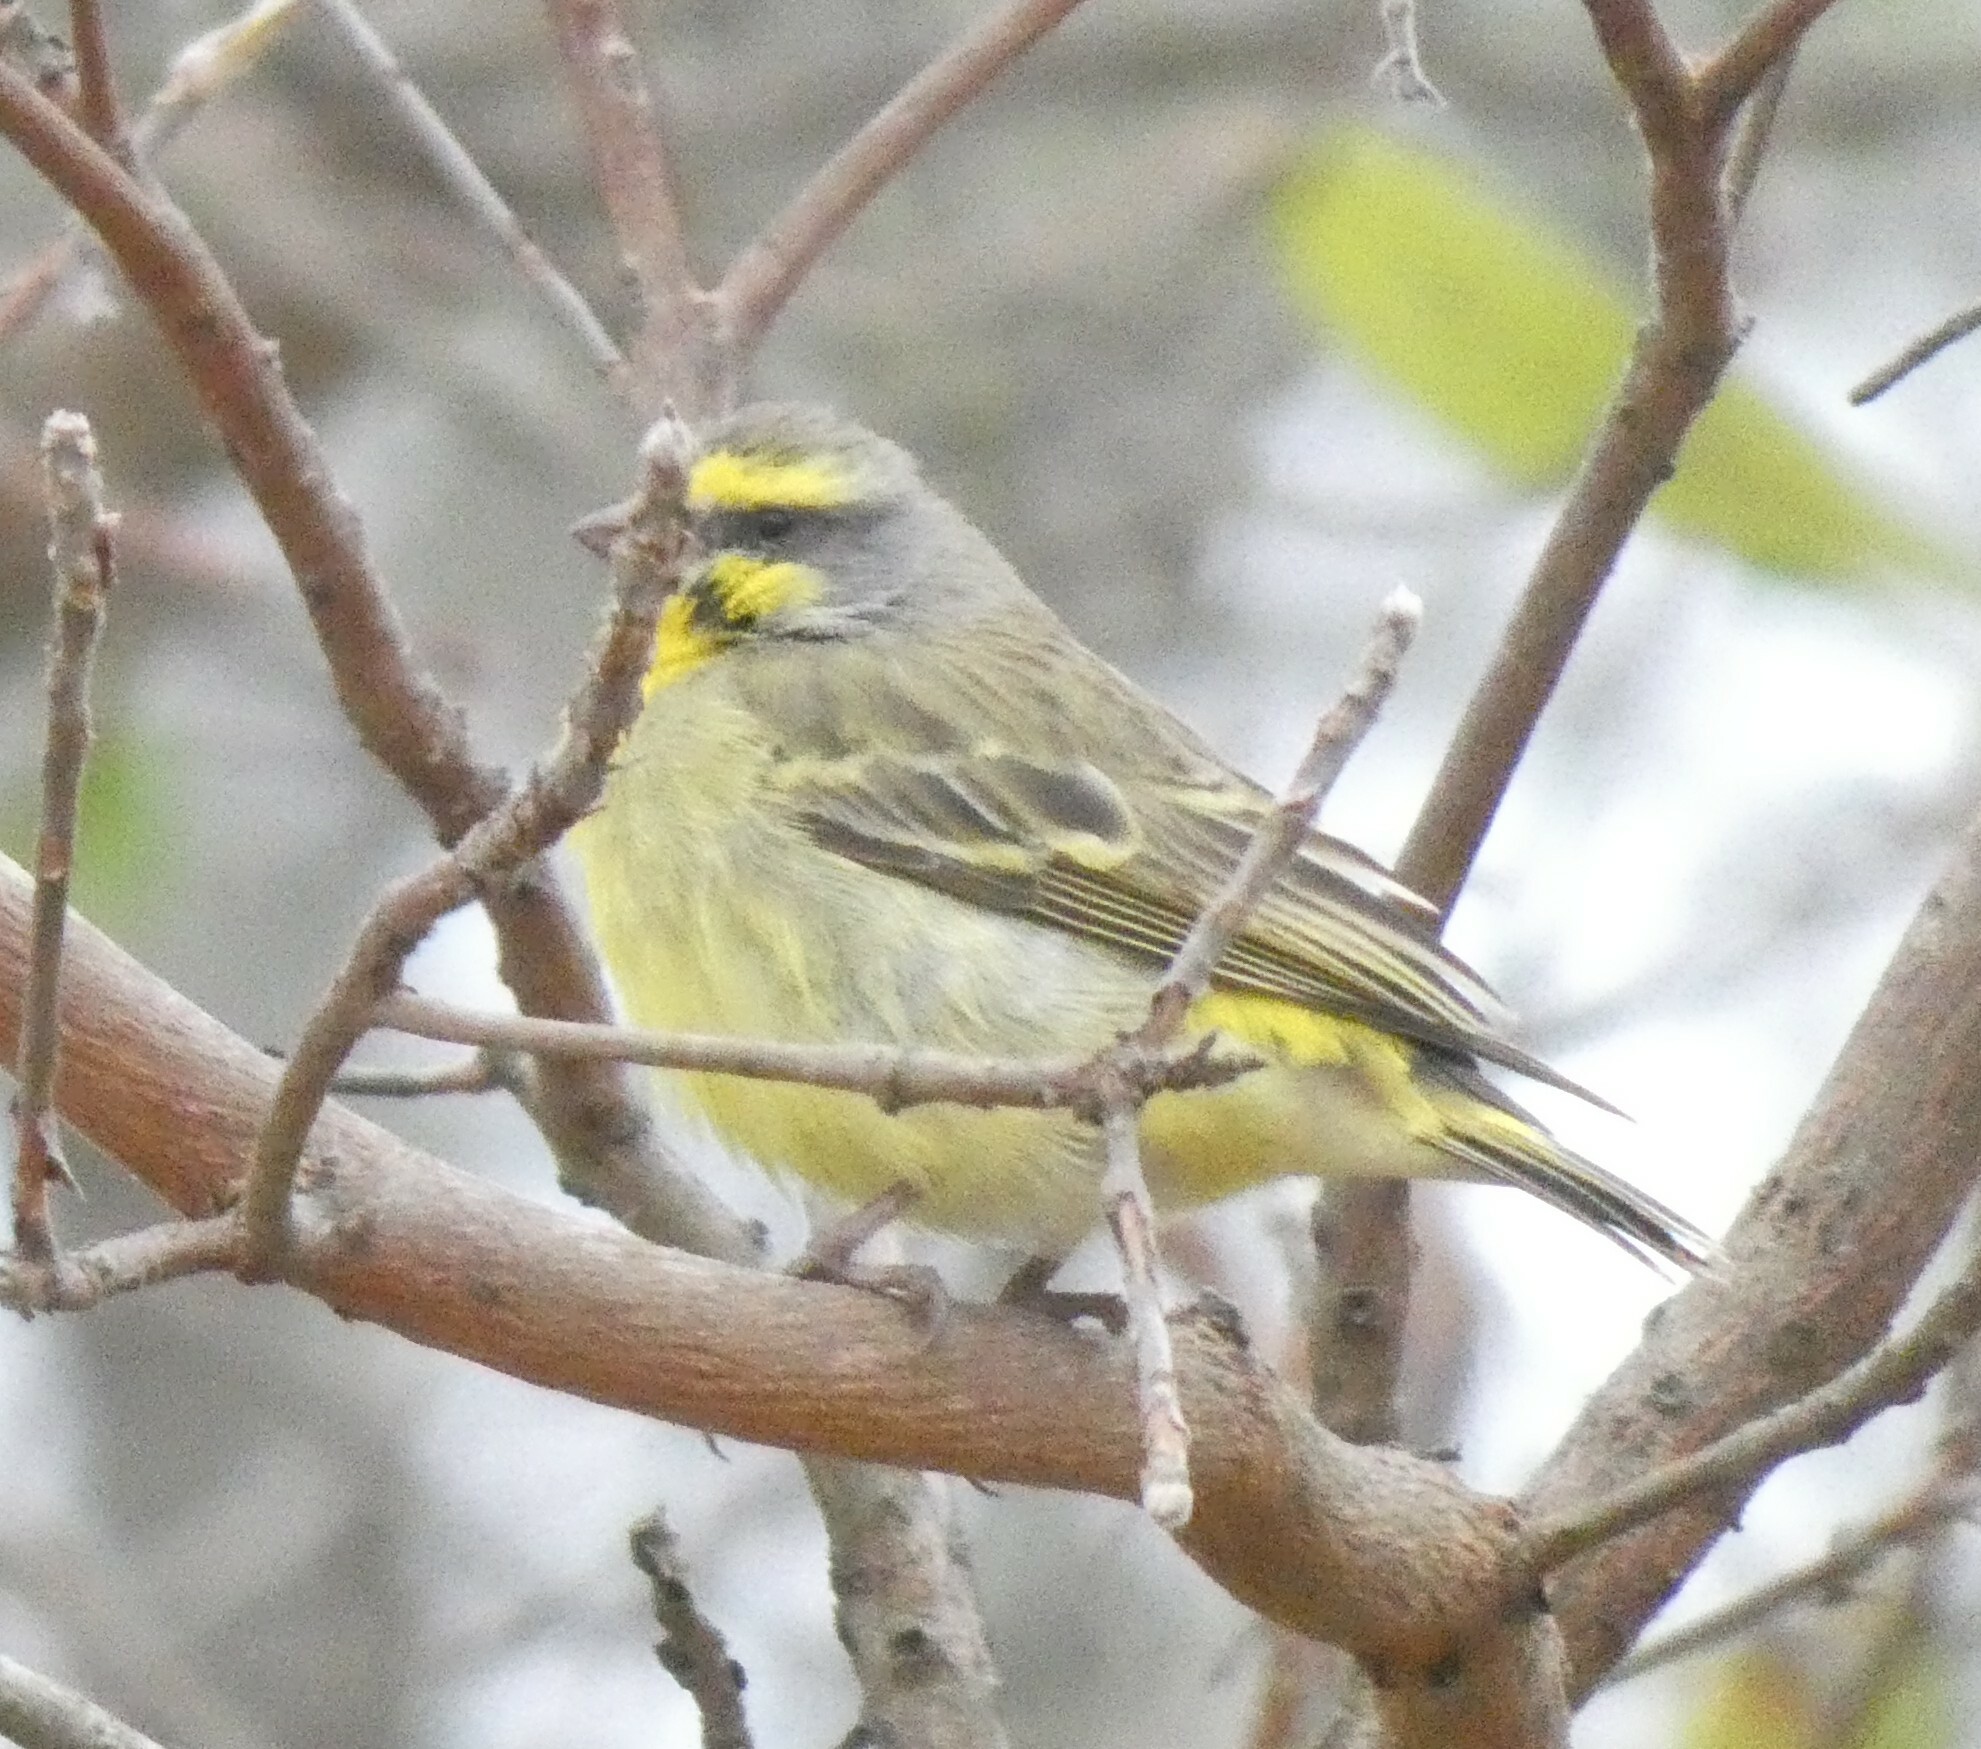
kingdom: Animalia
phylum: Chordata
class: Aves
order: Passeriformes
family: Fringillidae
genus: Crithagra
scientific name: Crithagra mozambica
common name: Yellow-fronted canary
